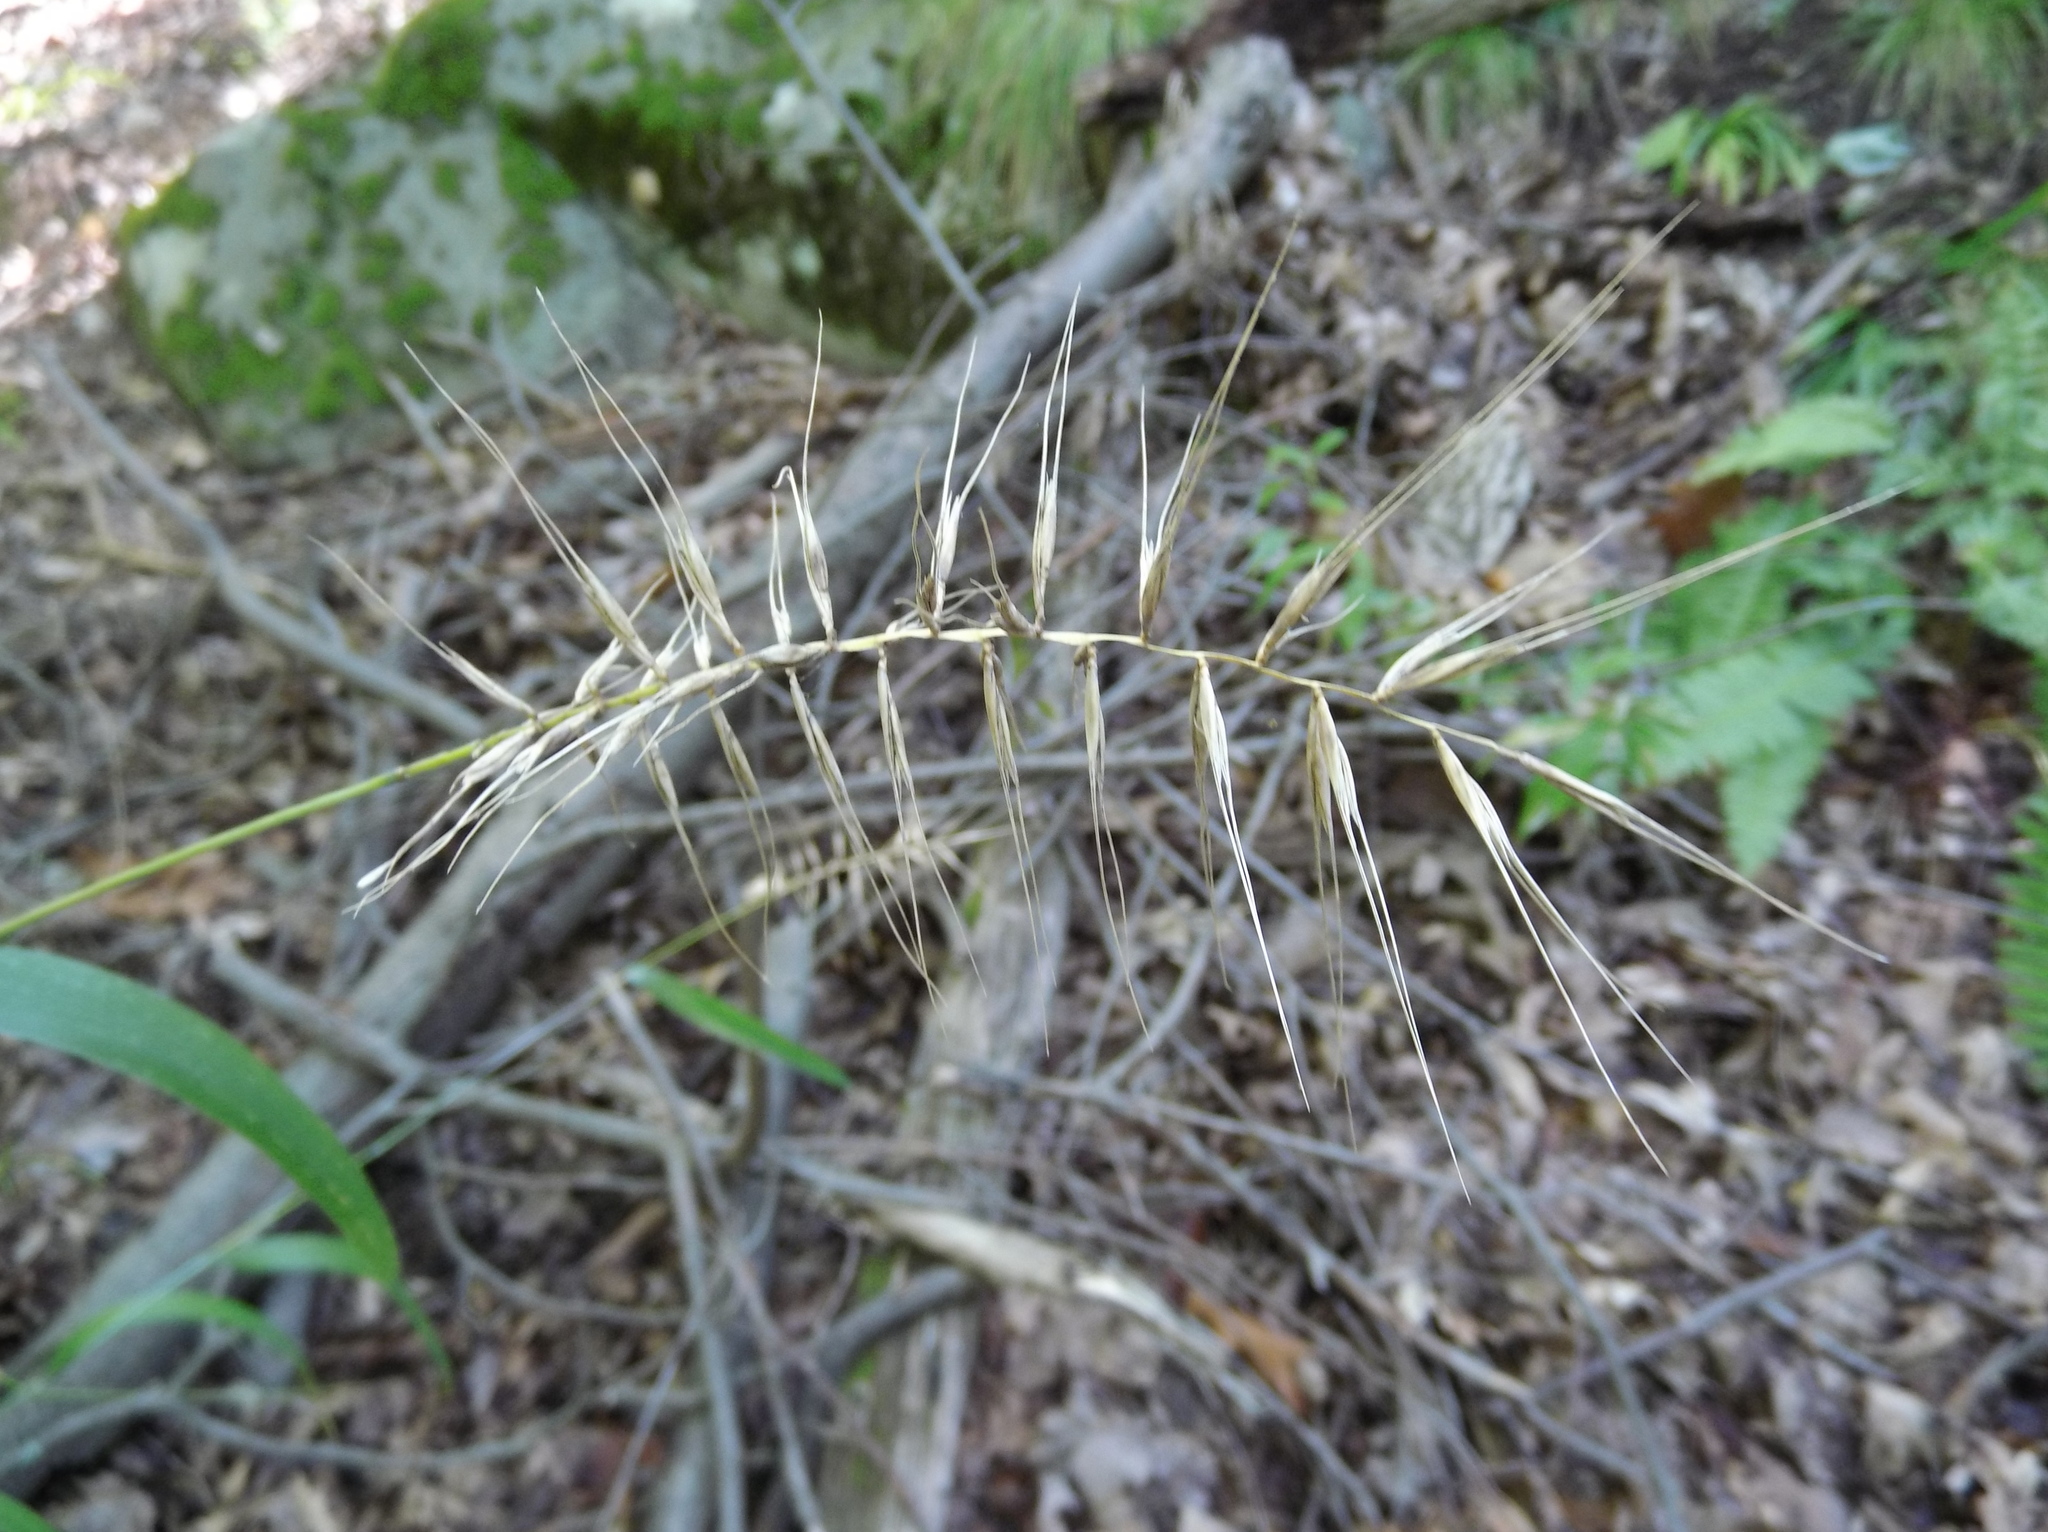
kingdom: Plantae
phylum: Tracheophyta
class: Liliopsida
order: Poales
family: Poaceae
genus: Elymus
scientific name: Elymus hystrix
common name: Bottlebrush grass
